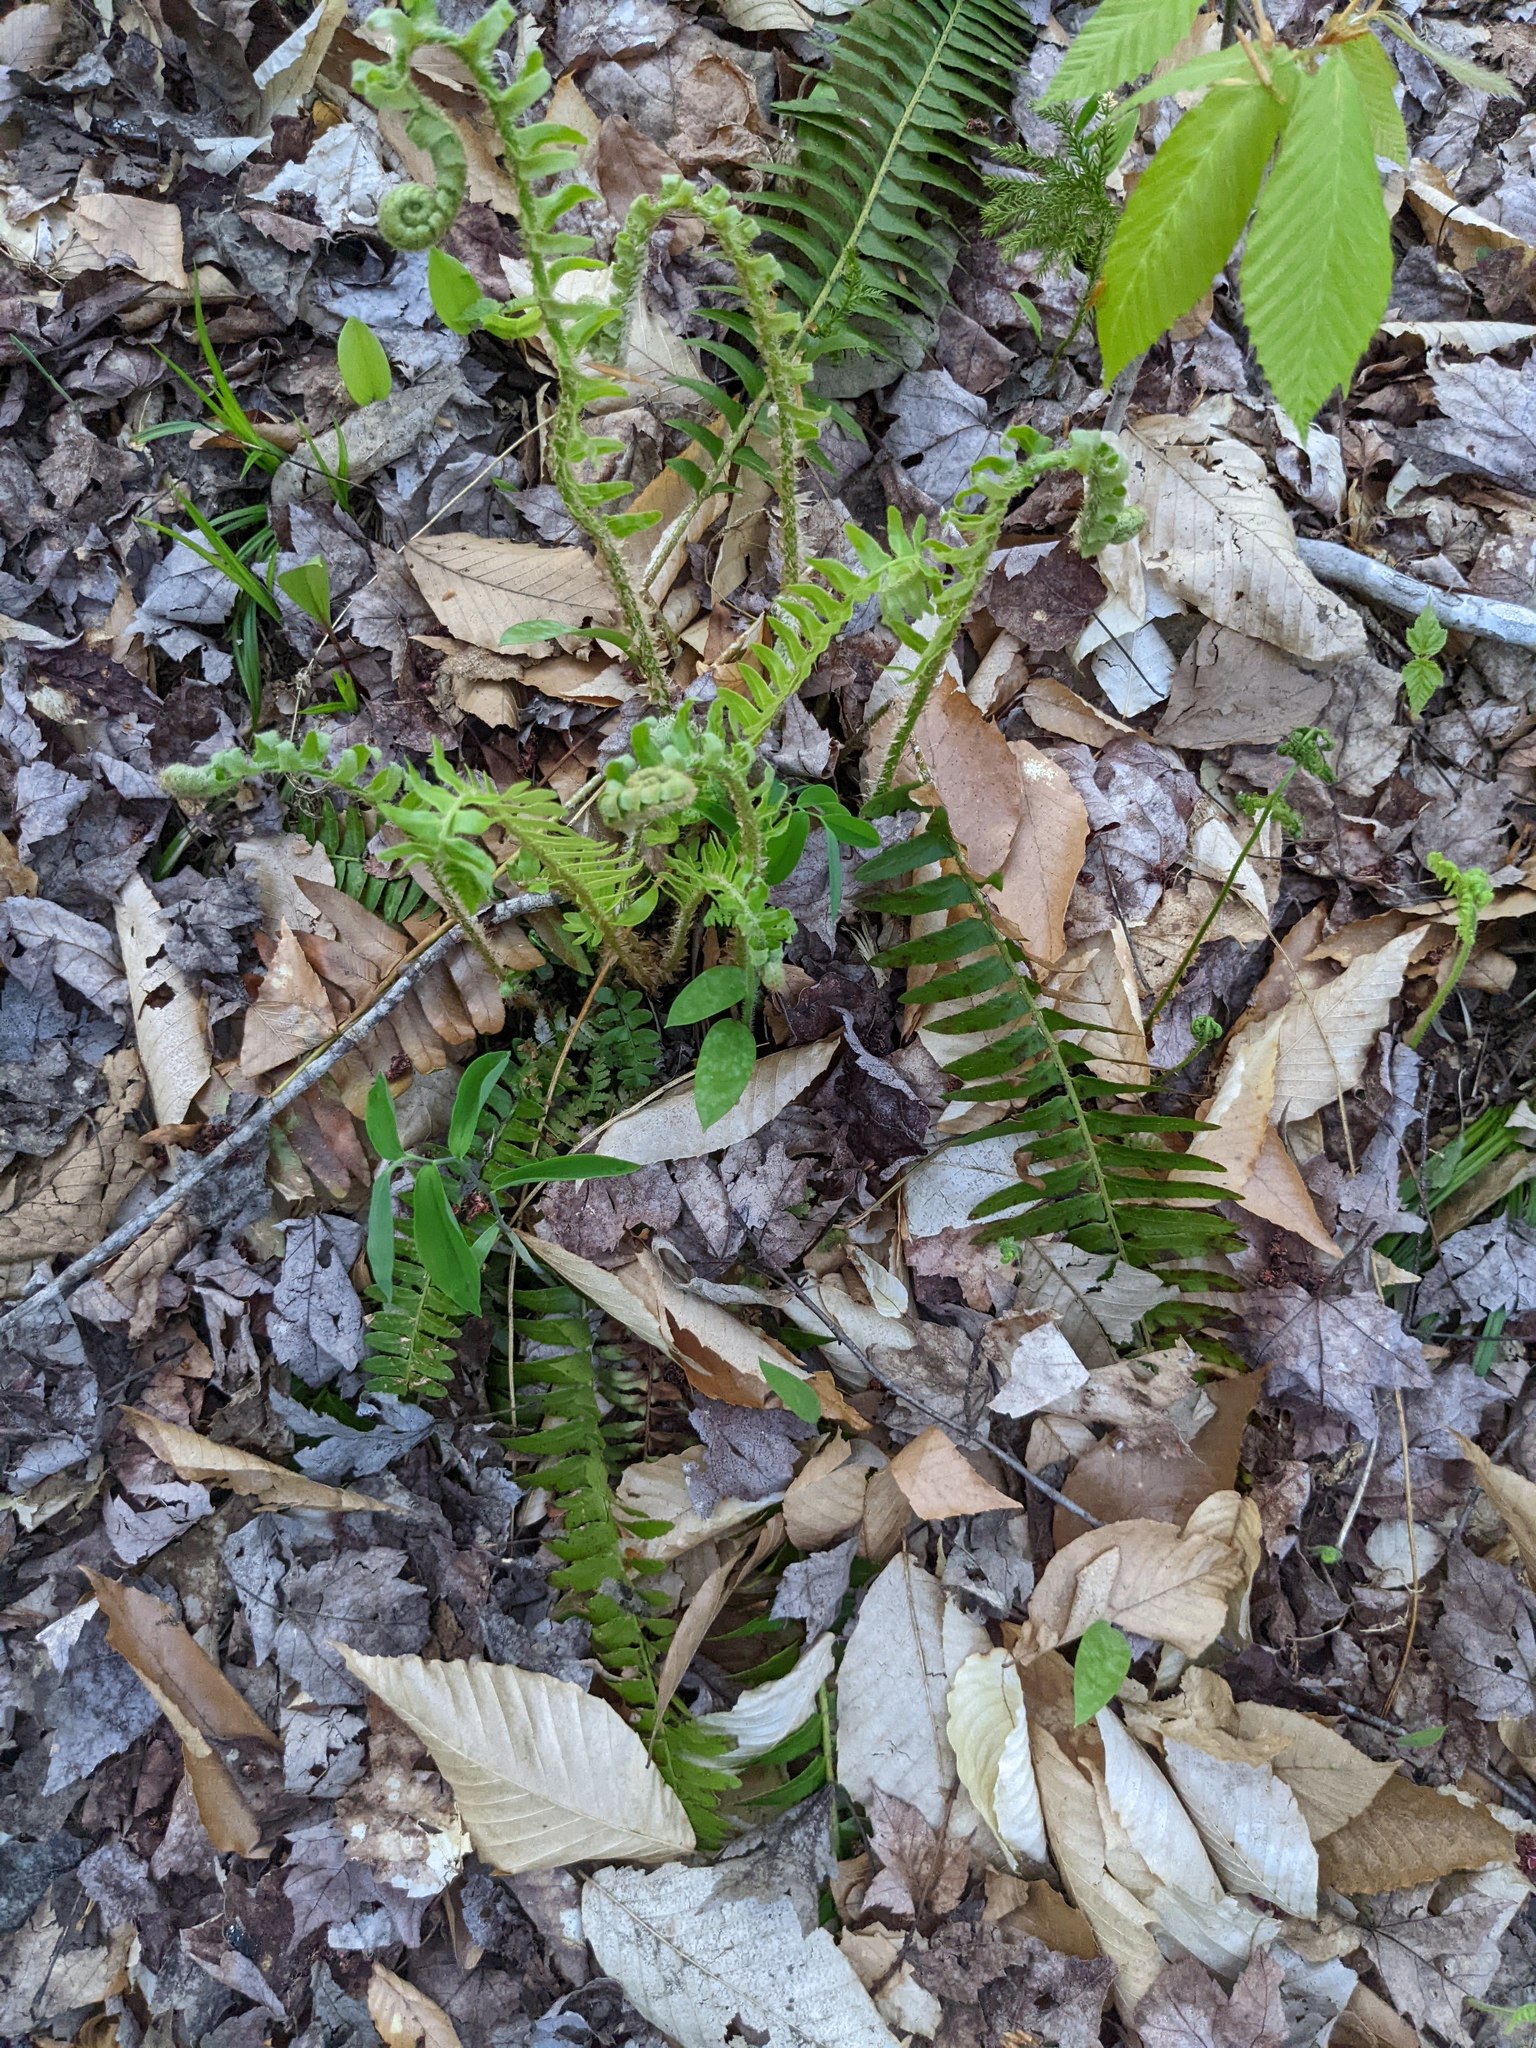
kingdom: Plantae
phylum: Tracheophyta
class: Polypodiopsida
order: Polypodiales
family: Dryopteridaceae
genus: Polystichum
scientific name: Polystichum acrostichoides
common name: Christmas fern
